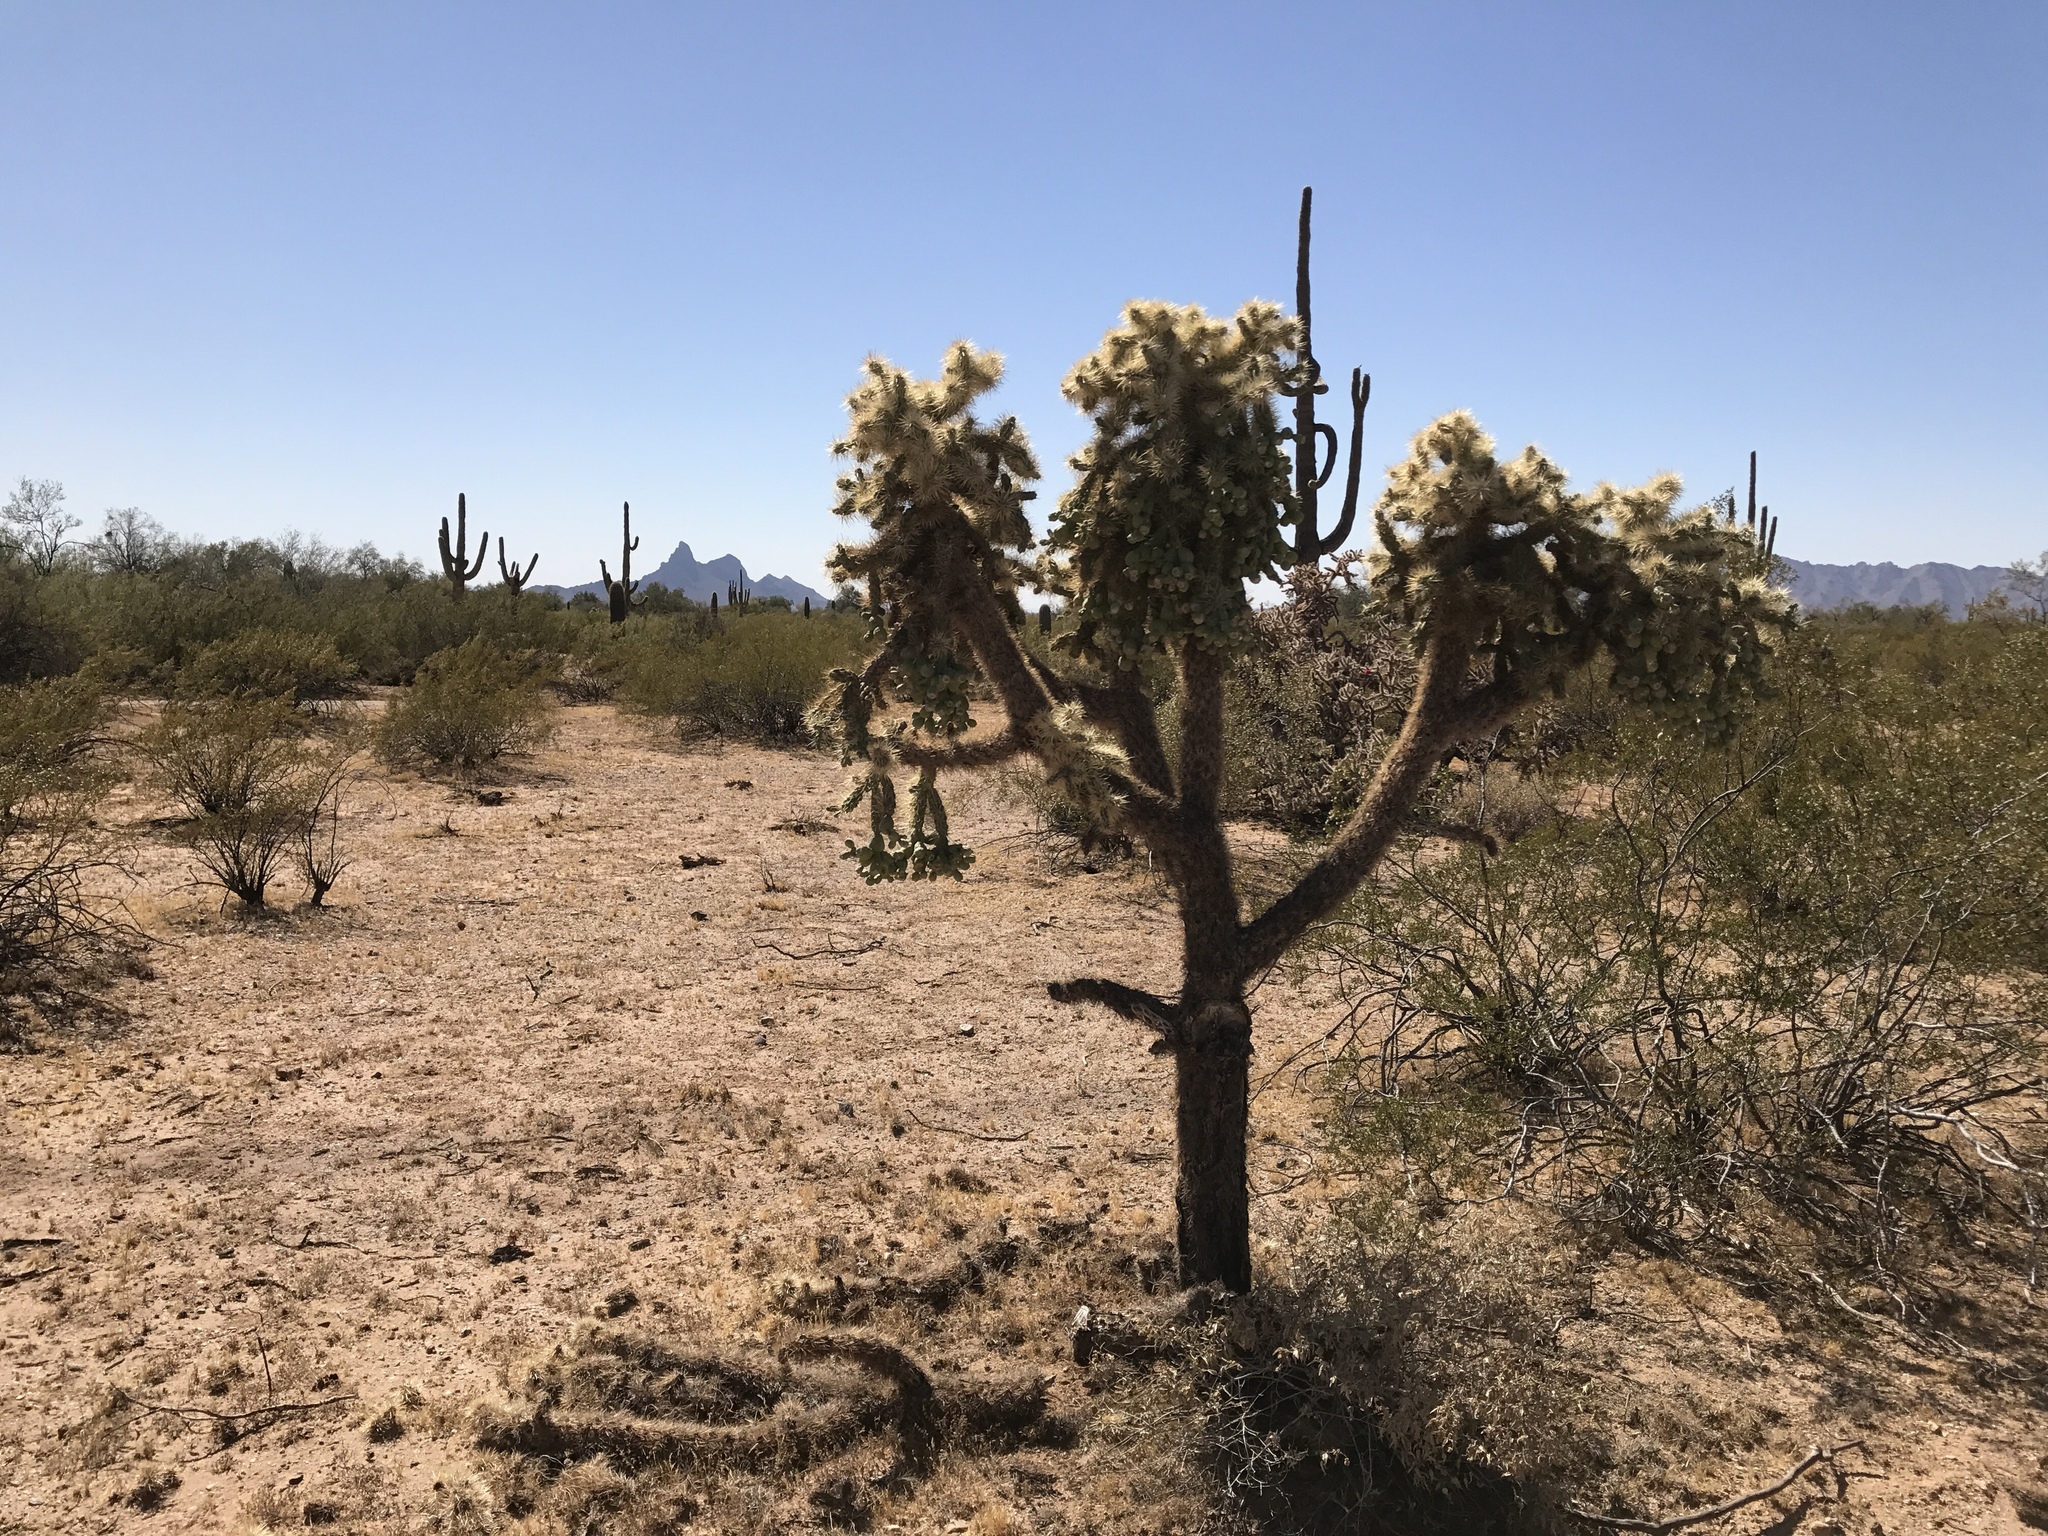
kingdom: Plantae
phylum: Tracheophyta
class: Magnoliopsida
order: Caryophyllales
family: Cactaceae
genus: Cylindropuntia
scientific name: Cylindropuntia fulgida
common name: Jumping cholla
